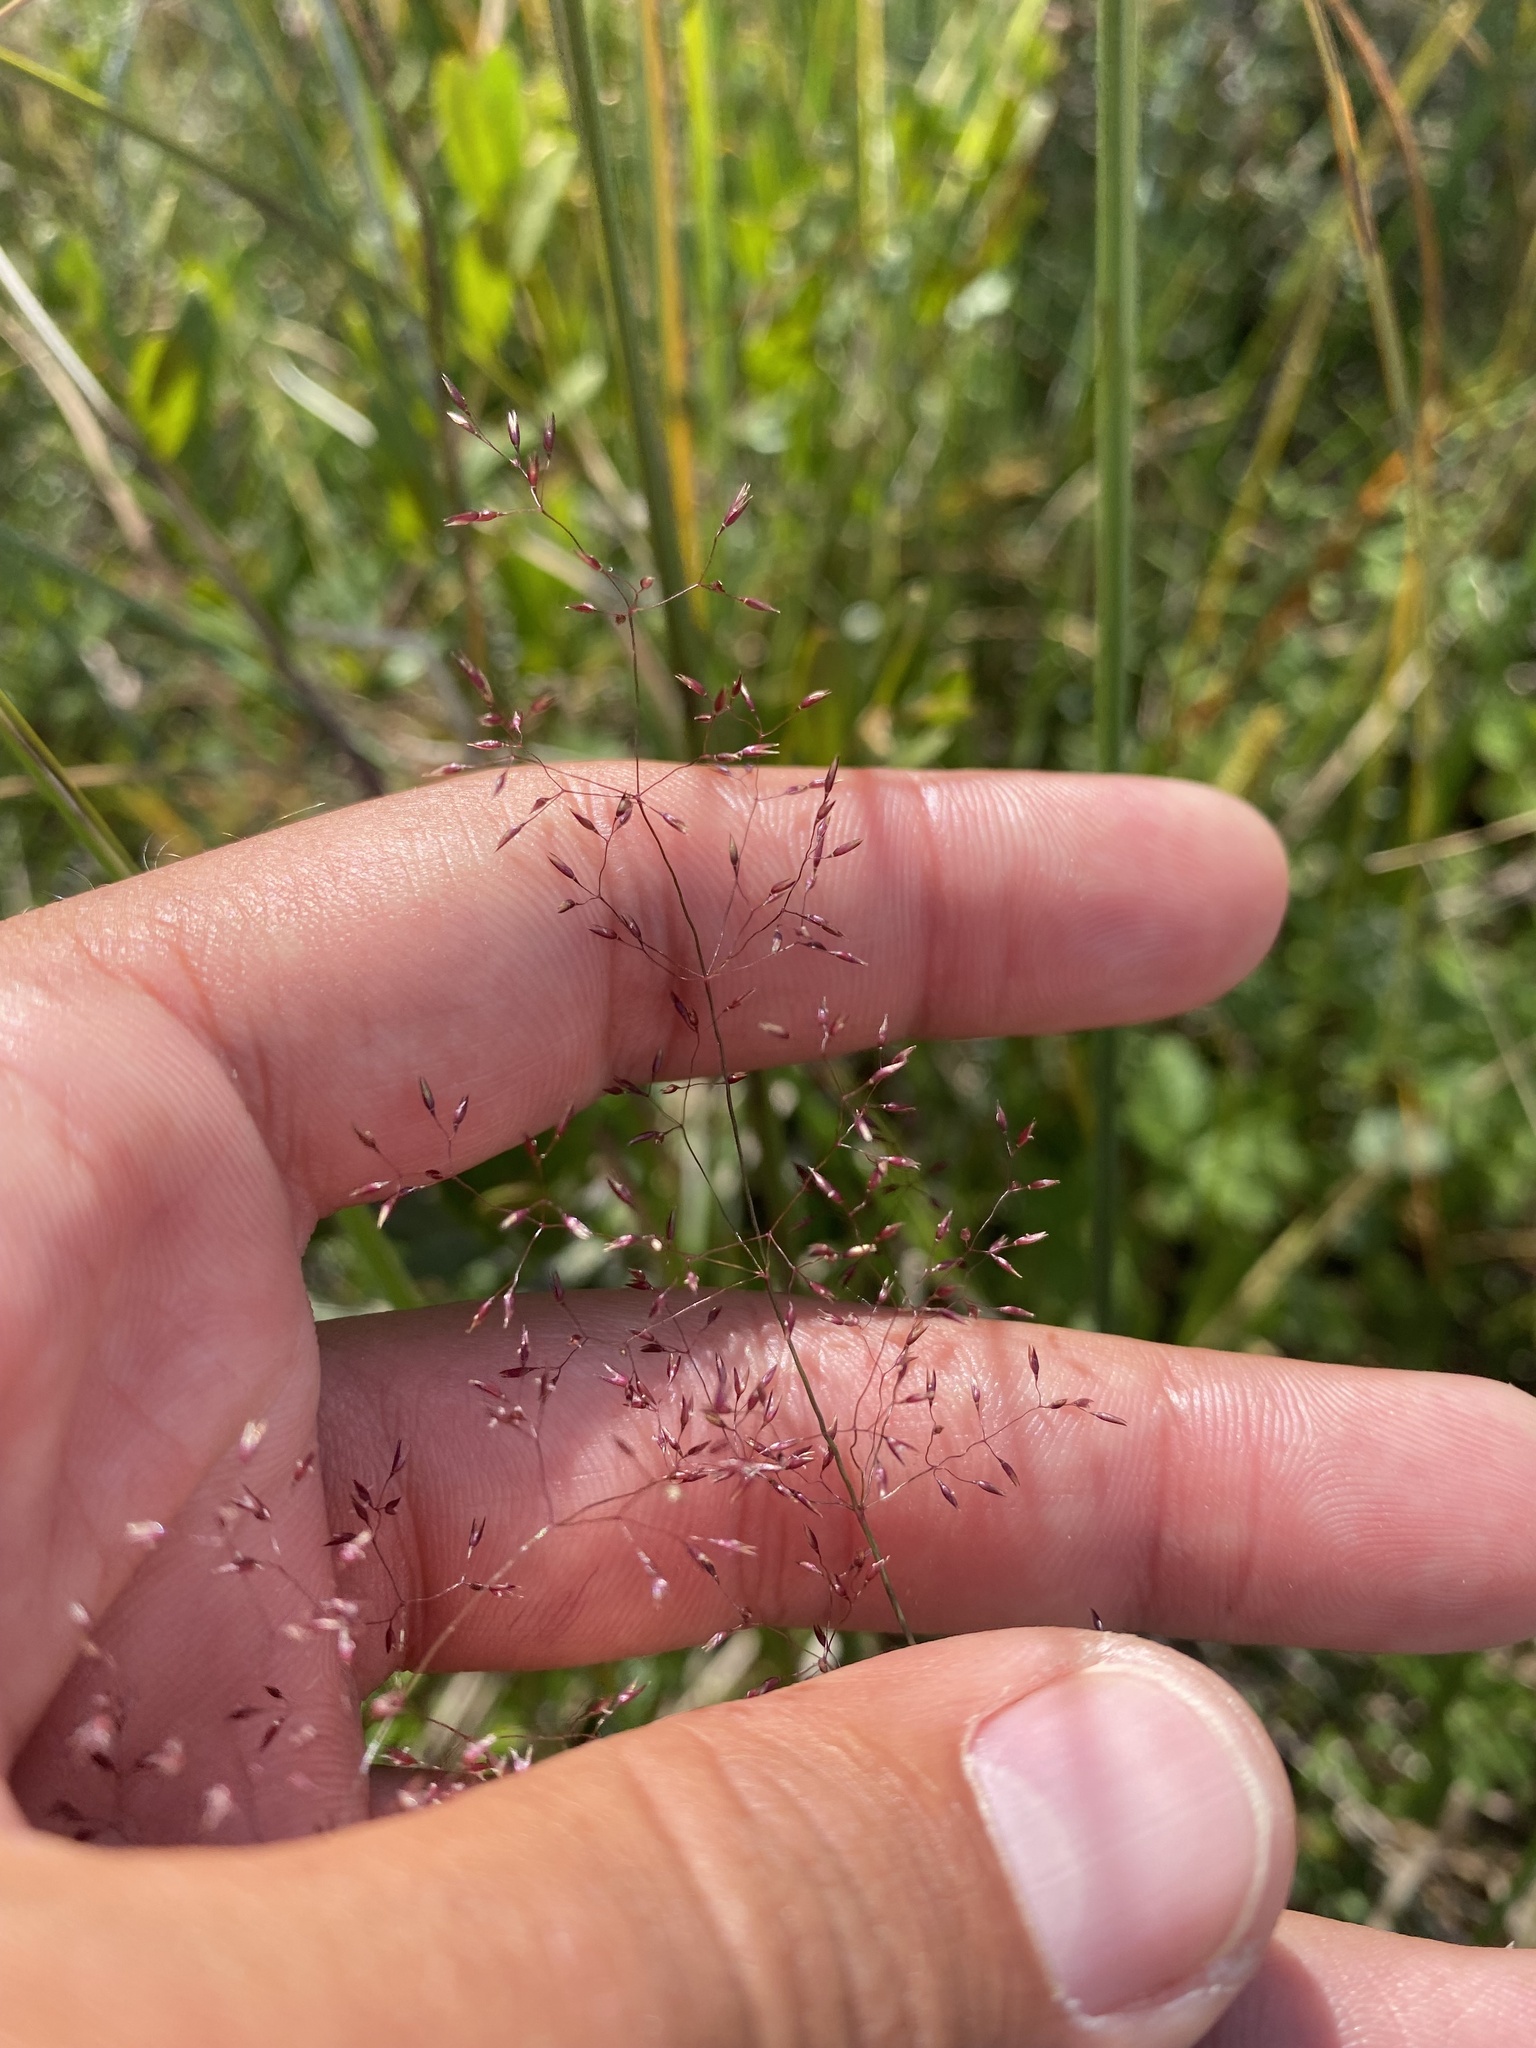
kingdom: Plantae
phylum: Tracheophyta
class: Liliopsida
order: Poales
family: Poaceae
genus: Agrostis
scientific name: Agrostis capillaris
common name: Colonial bentgrass
